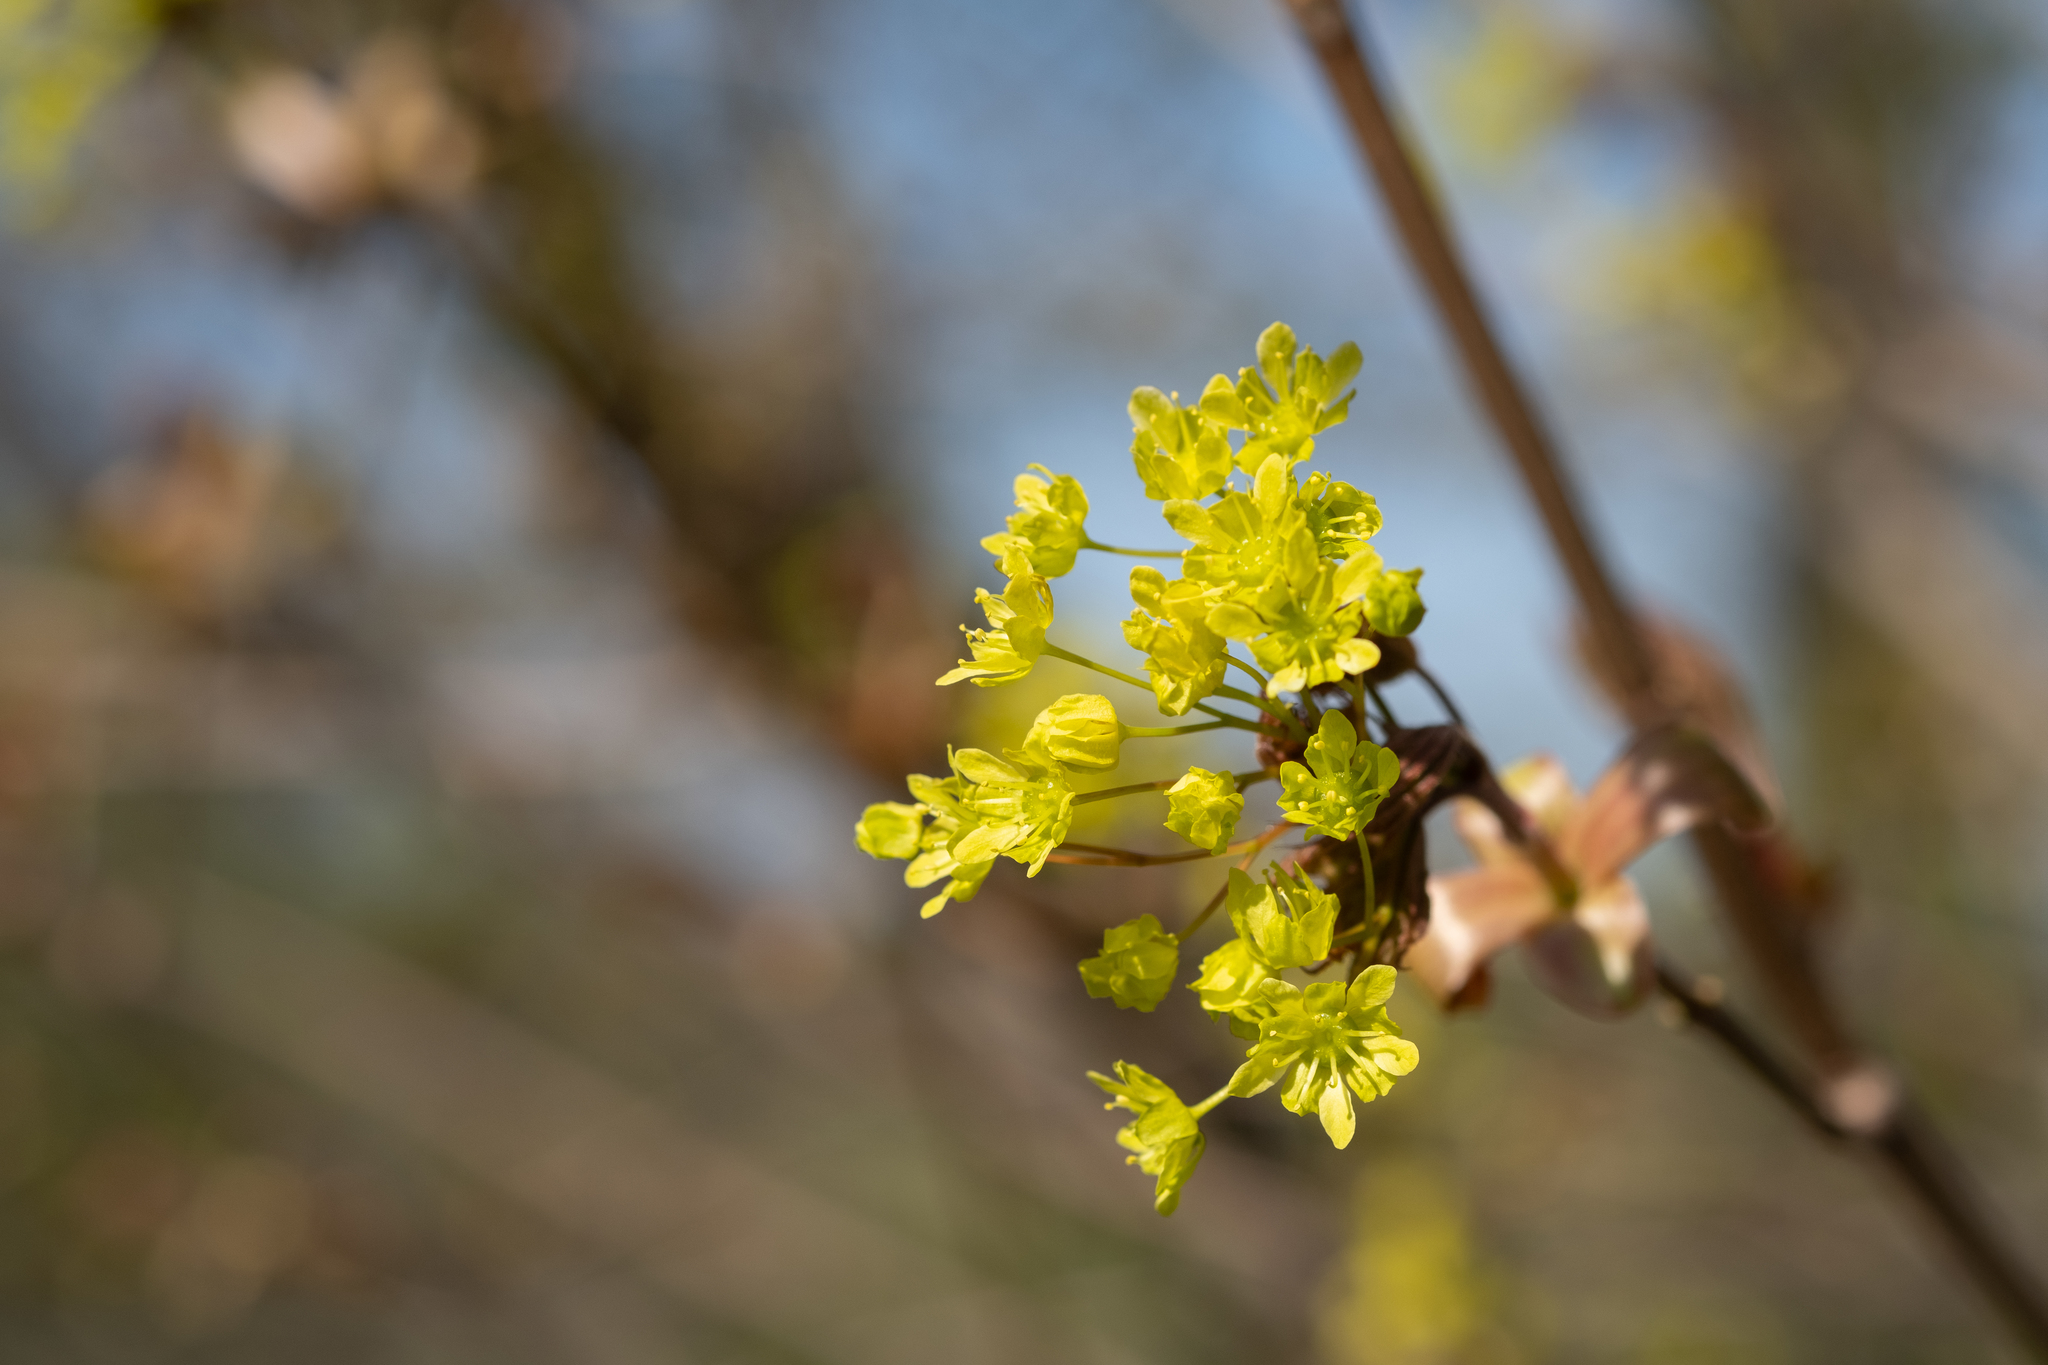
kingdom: Plantae
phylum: Tracheophyta
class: Magnoliopsida
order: Sapindales
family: Sapindaceae
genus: Acer
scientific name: Acer platanoides
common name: Norway maple
